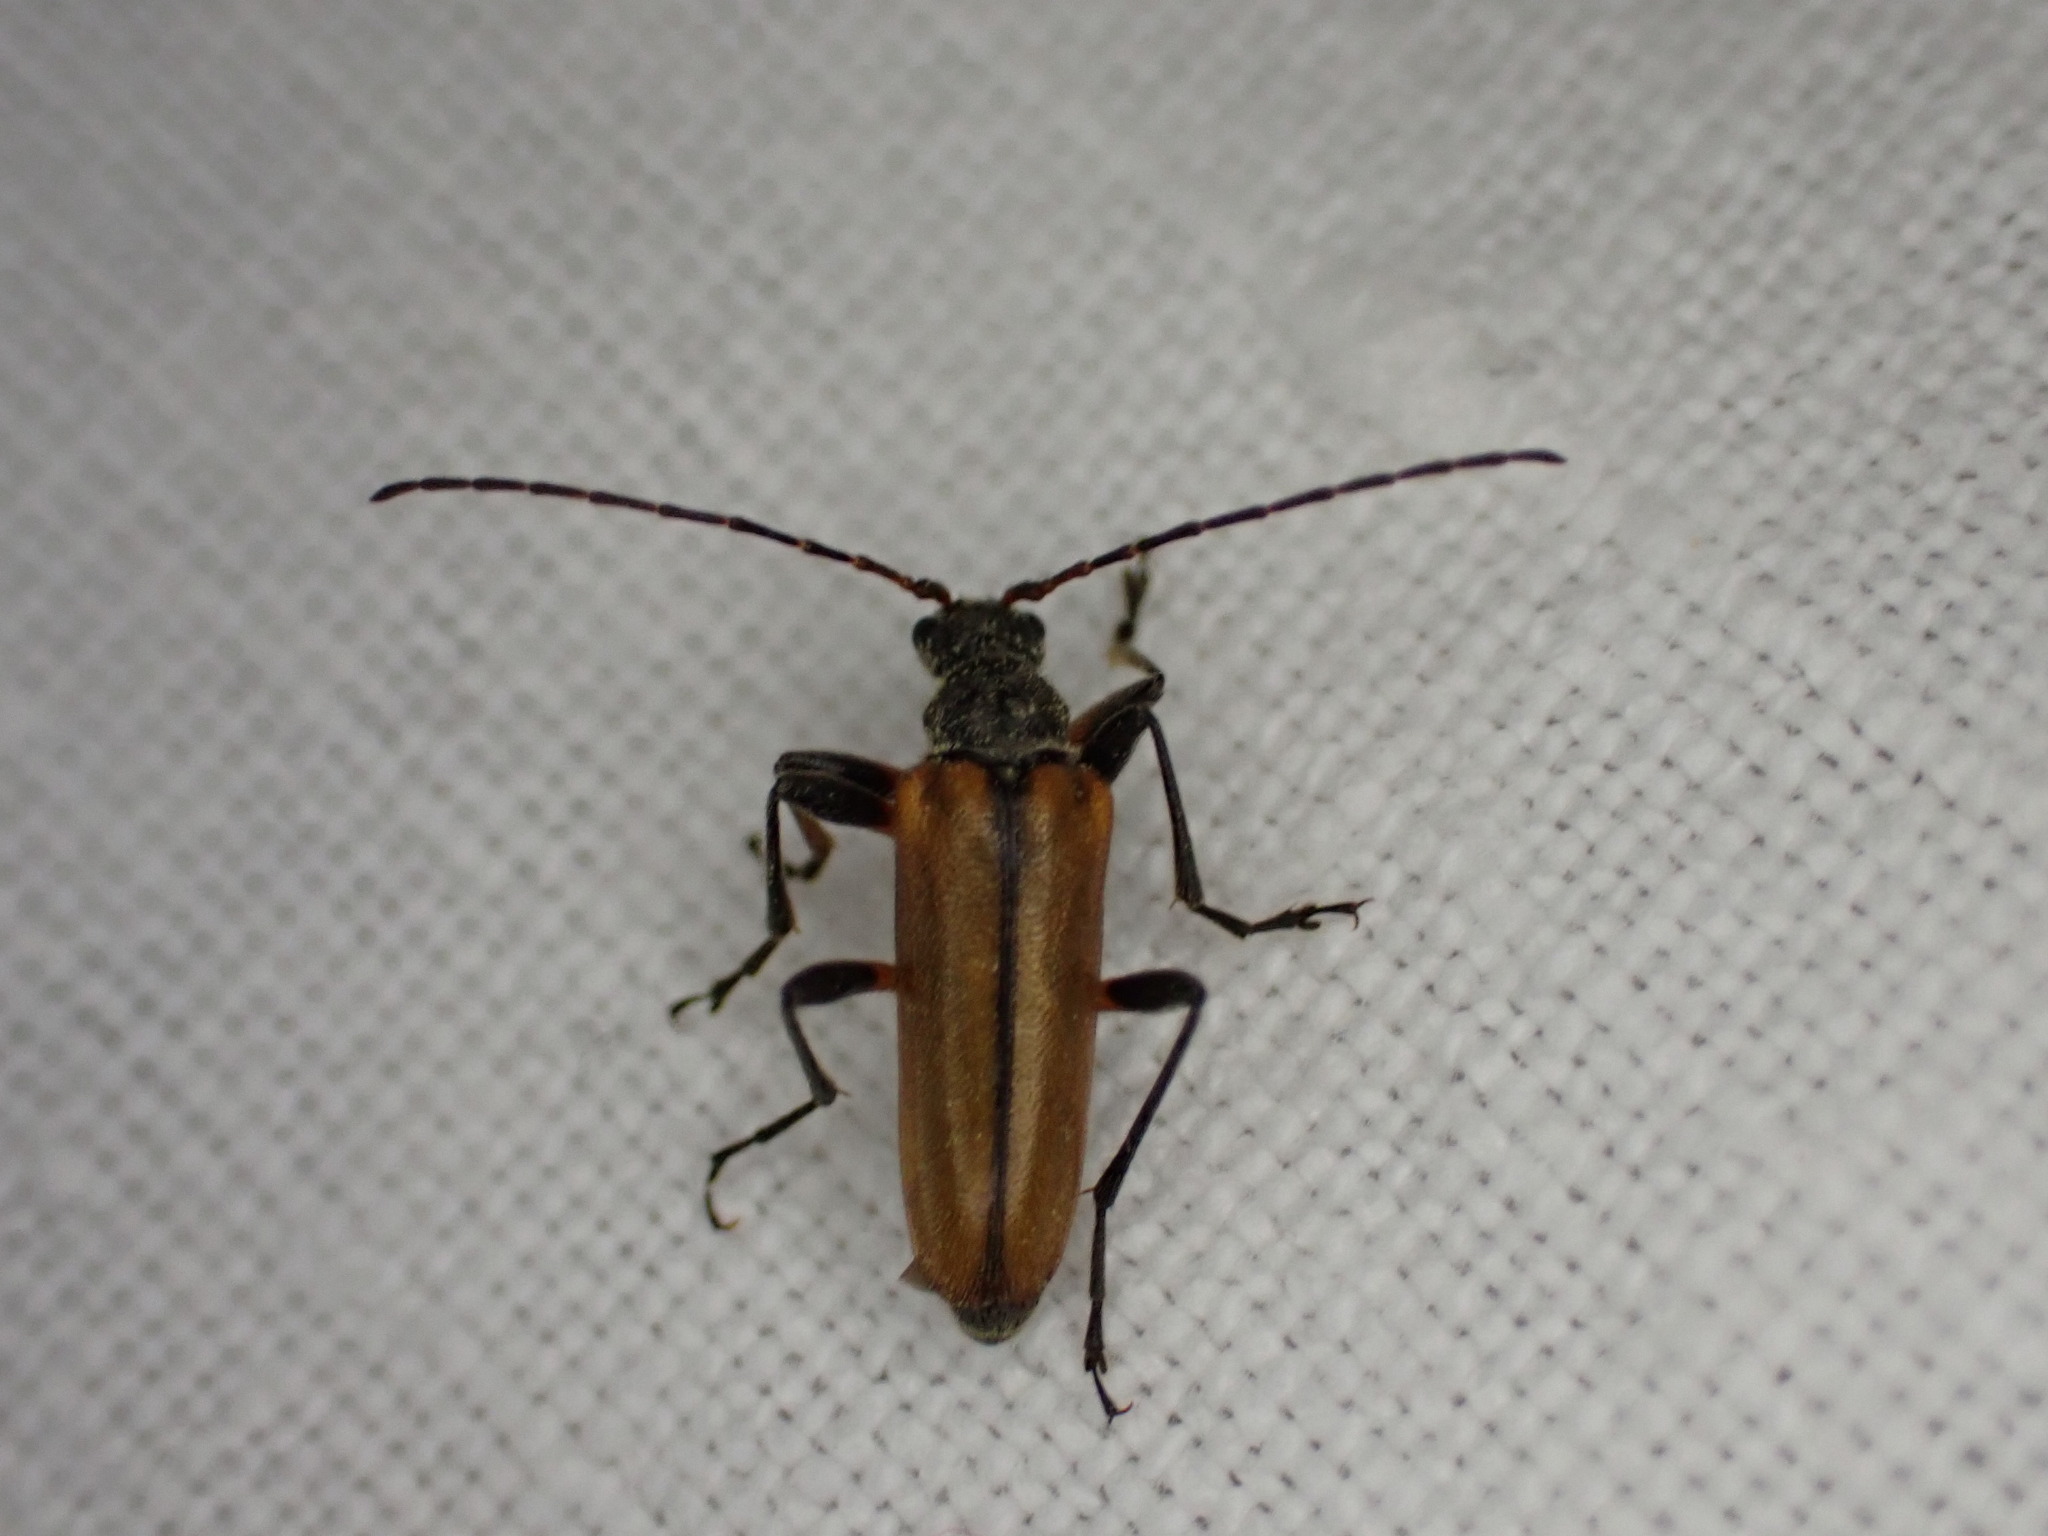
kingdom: Animalia
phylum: Arthropoda
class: Insecta
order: Coleoptera
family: Cerambycidae
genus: Cortodera
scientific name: Cortodera humeralis
